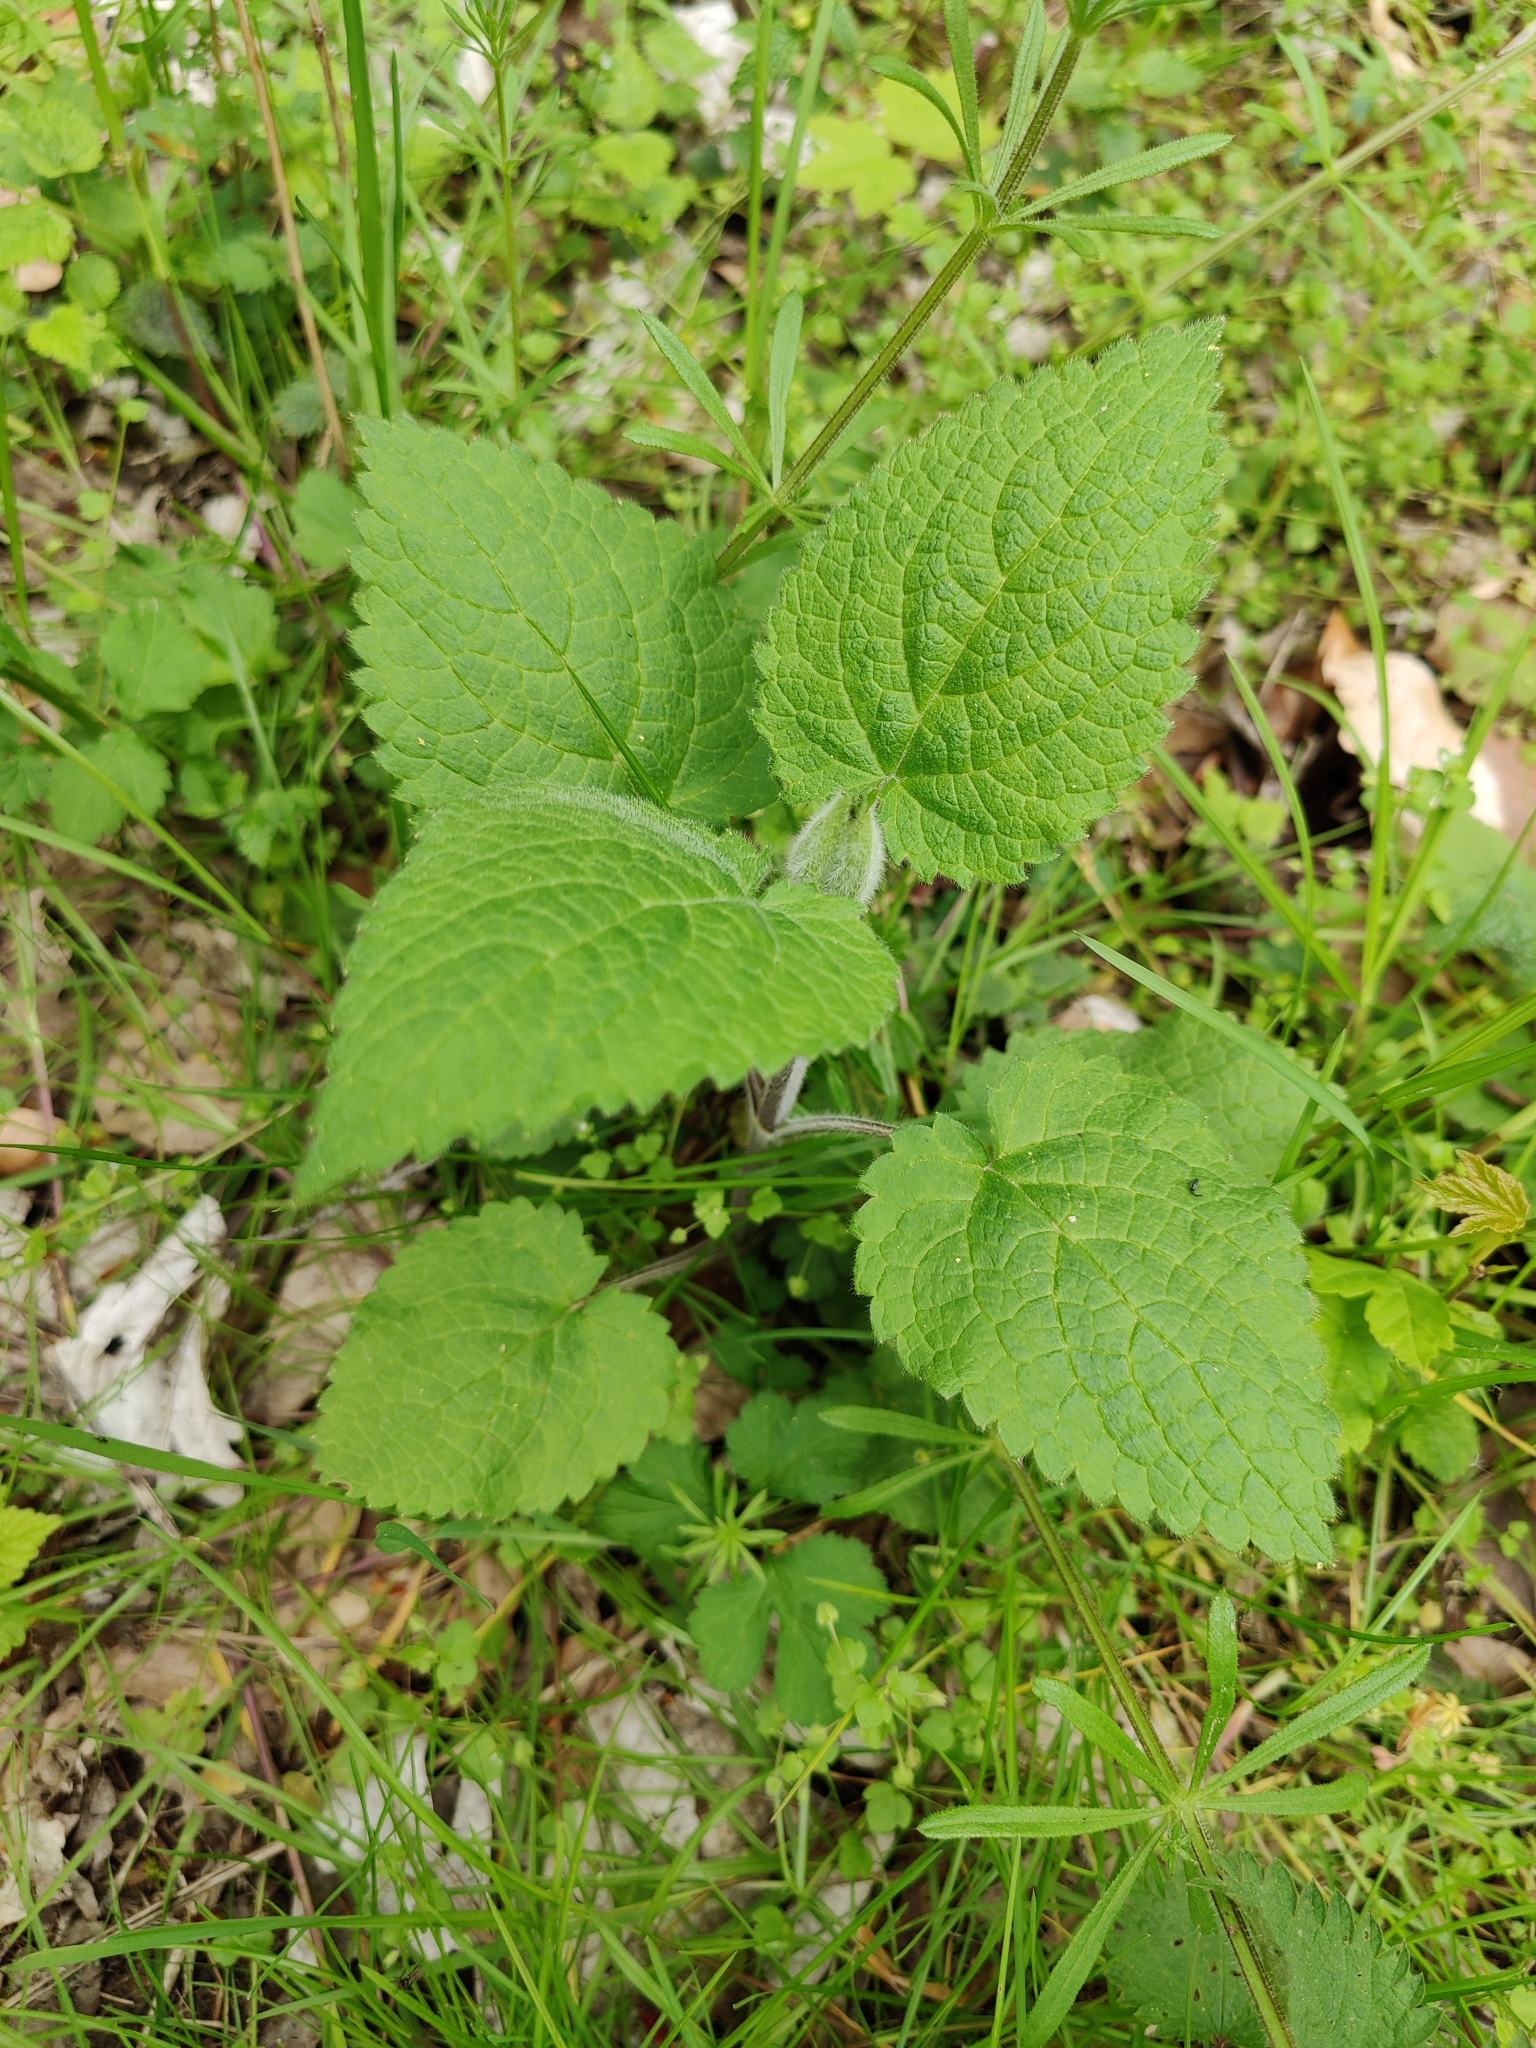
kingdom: Plantae
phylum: Tracheophyta
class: Magnoliopsida
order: Lamiales
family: Lamiaceae
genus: Stachys
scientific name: Stachys sylvatica
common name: Hedge woundwort
